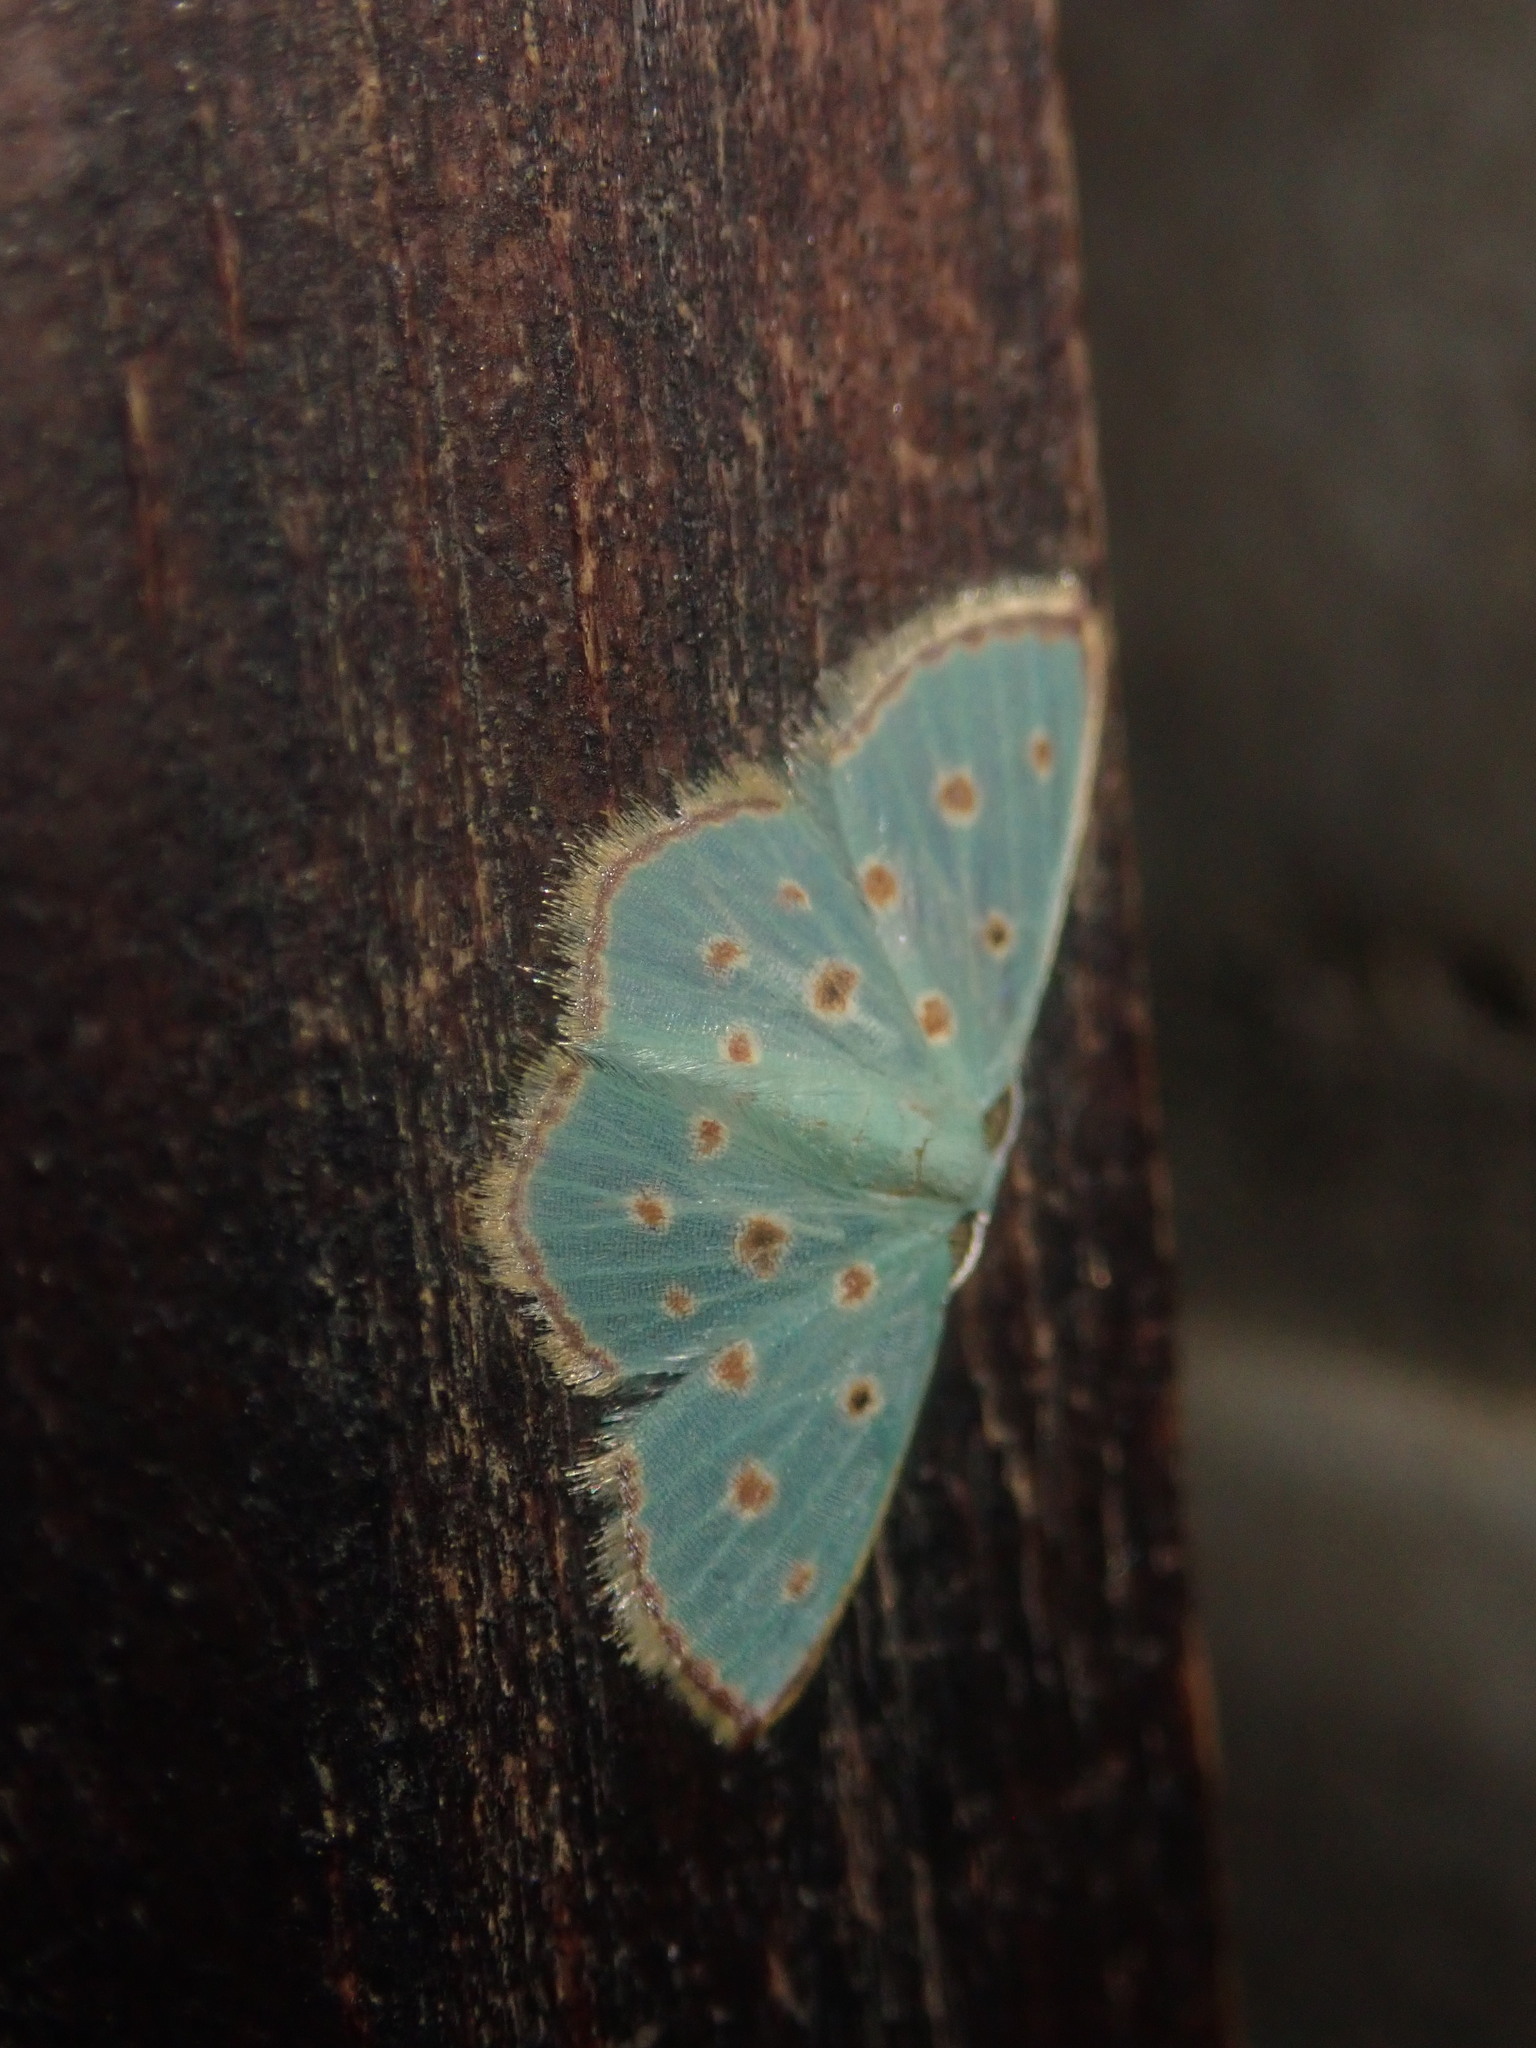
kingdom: Animalia
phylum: Arthropoda
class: Insecta
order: Lepidoptera
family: Geometridae
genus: Comostolopsis
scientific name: Comostolopsis stillata
